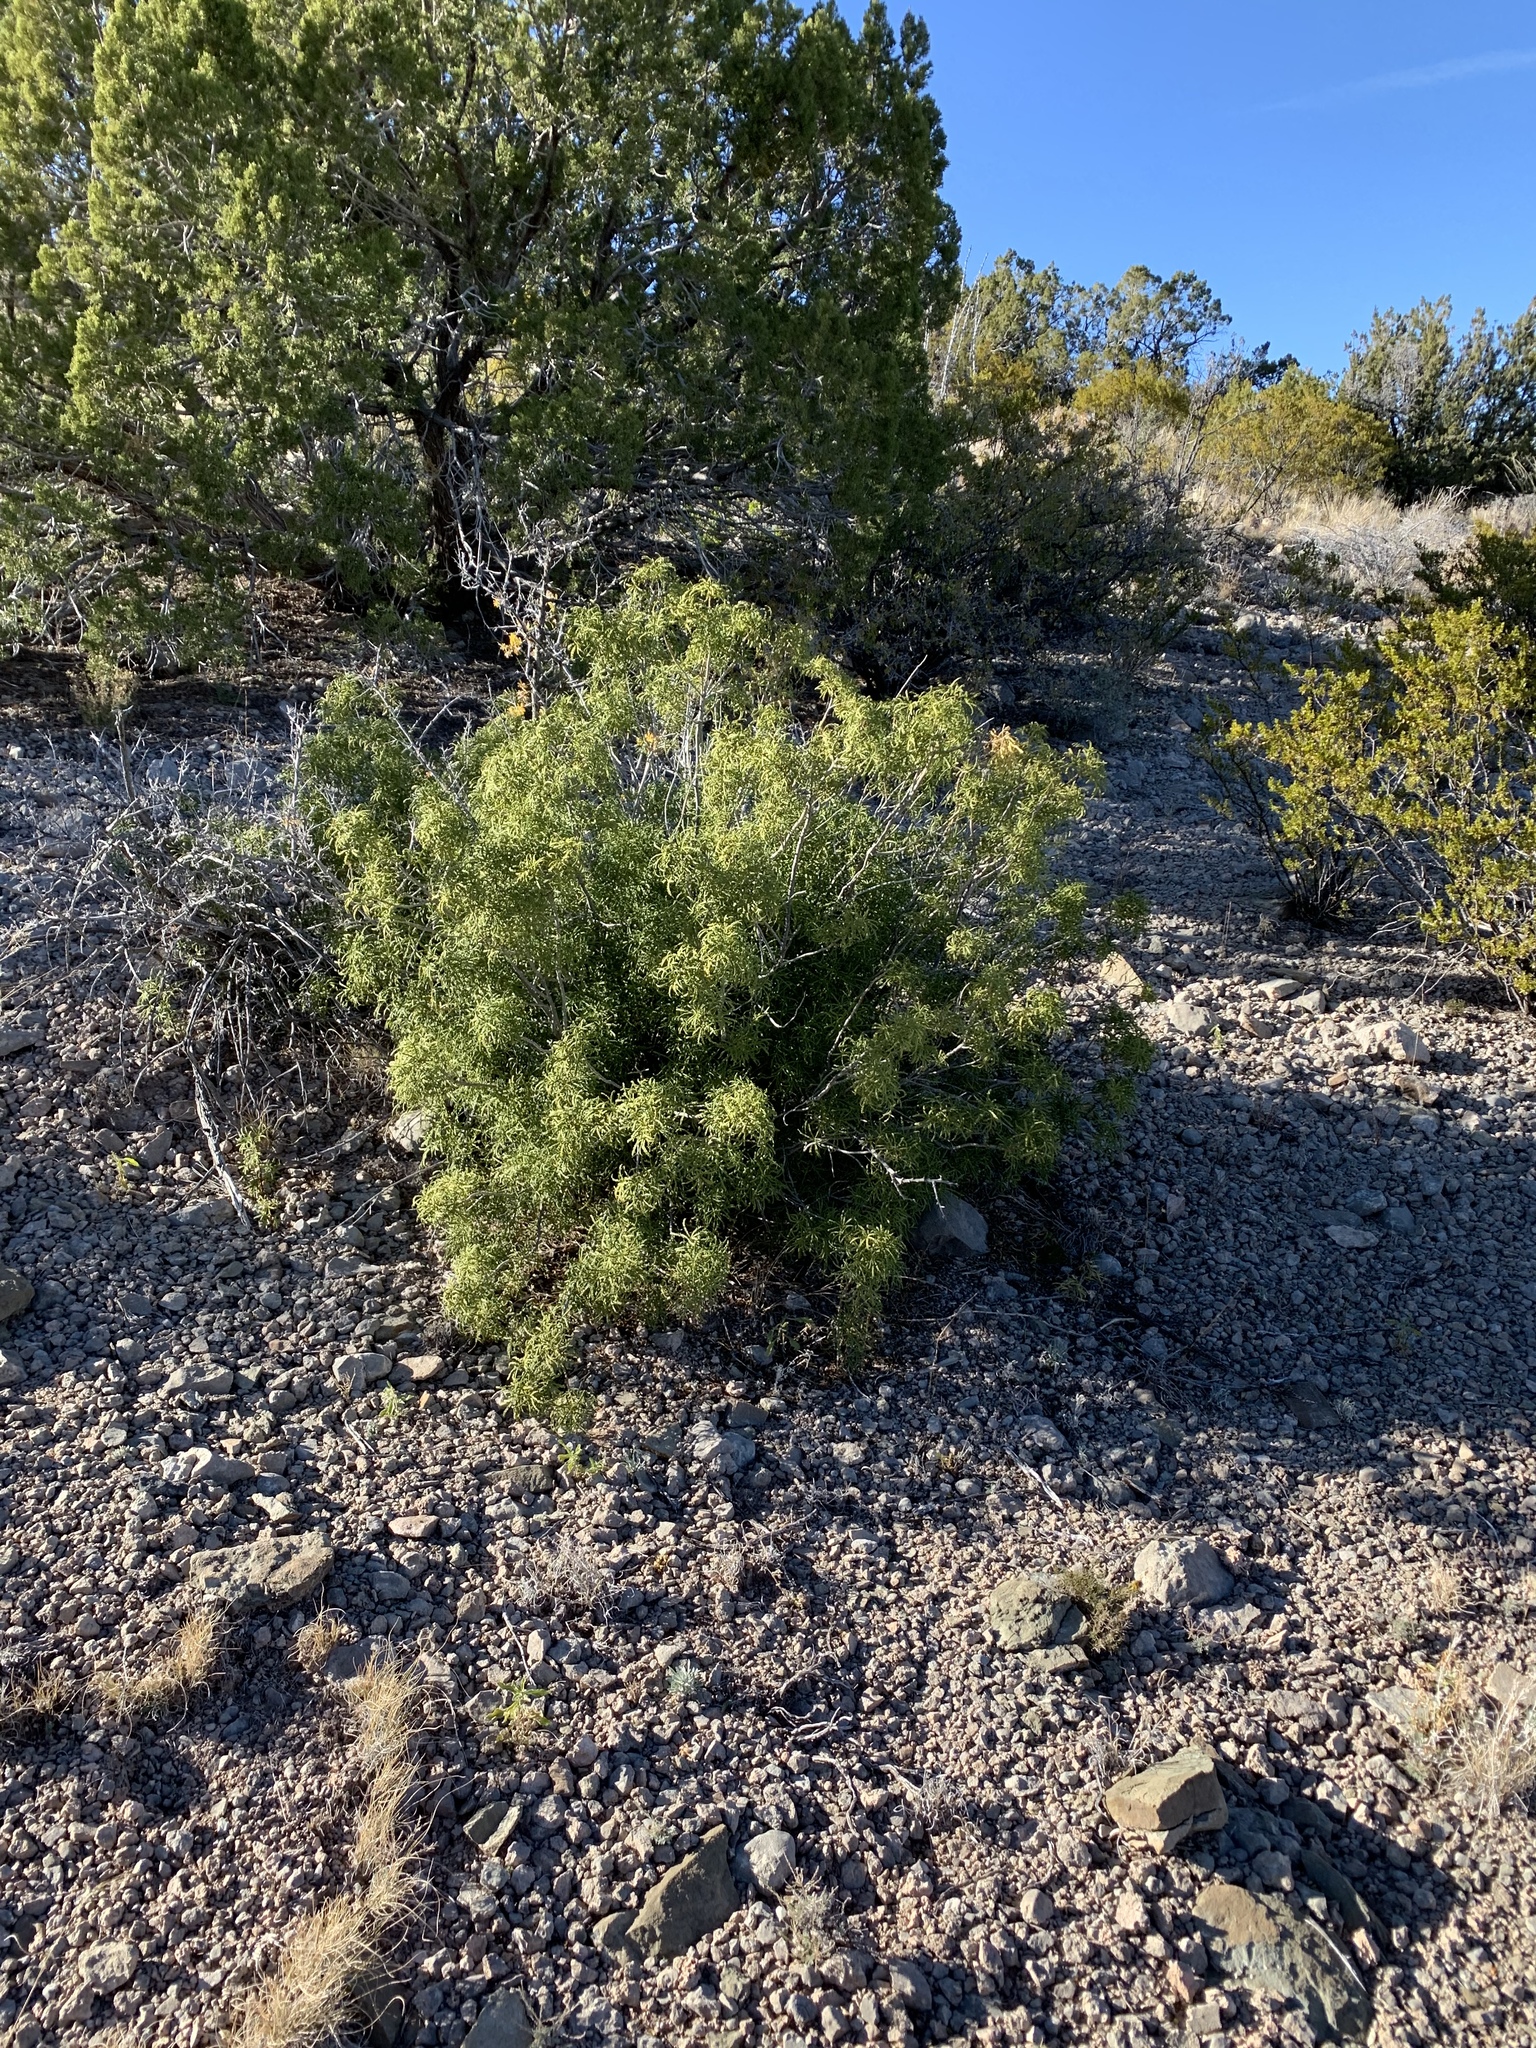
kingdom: Plantae
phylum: Tracheophyta
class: Magnoliopsida
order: Sapindales
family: Rutaceae
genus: Choisya
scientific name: Choisya dumosa
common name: Mexican-orange
